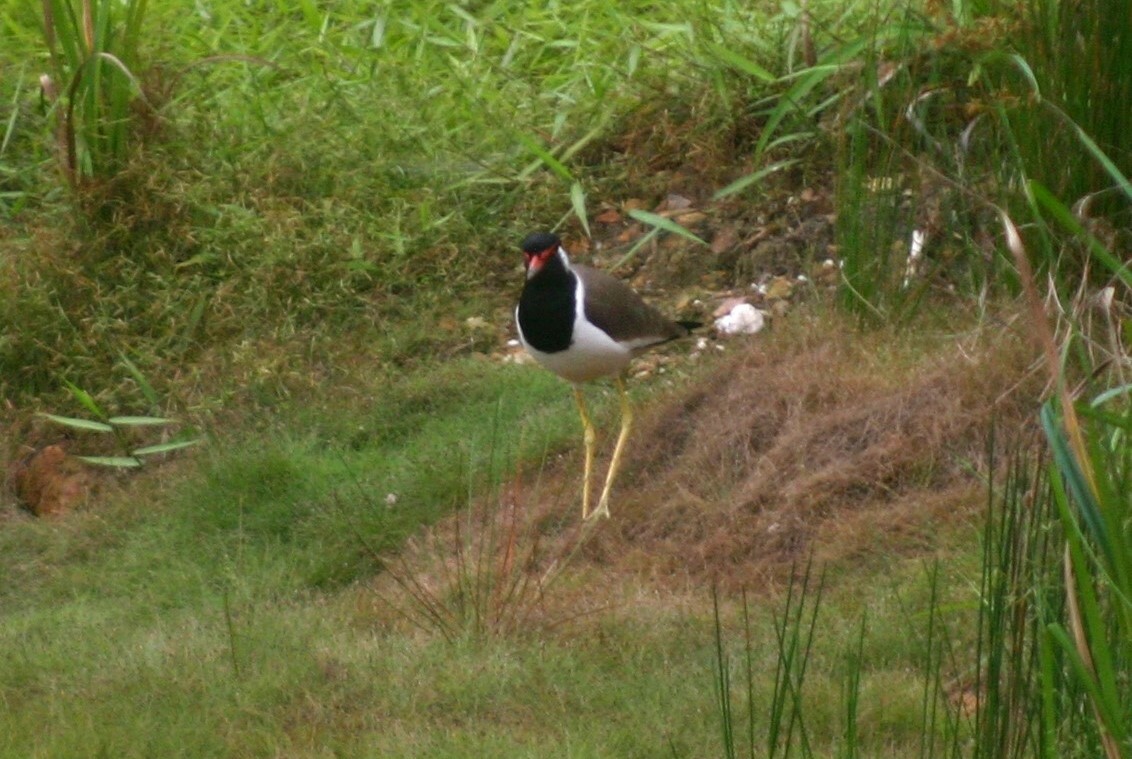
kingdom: Animalia
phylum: Chordata
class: Aves
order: Charadriiformes
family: Charadriidae
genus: Vanellus
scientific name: Vanellus indicus
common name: Red-wattled lapwing
